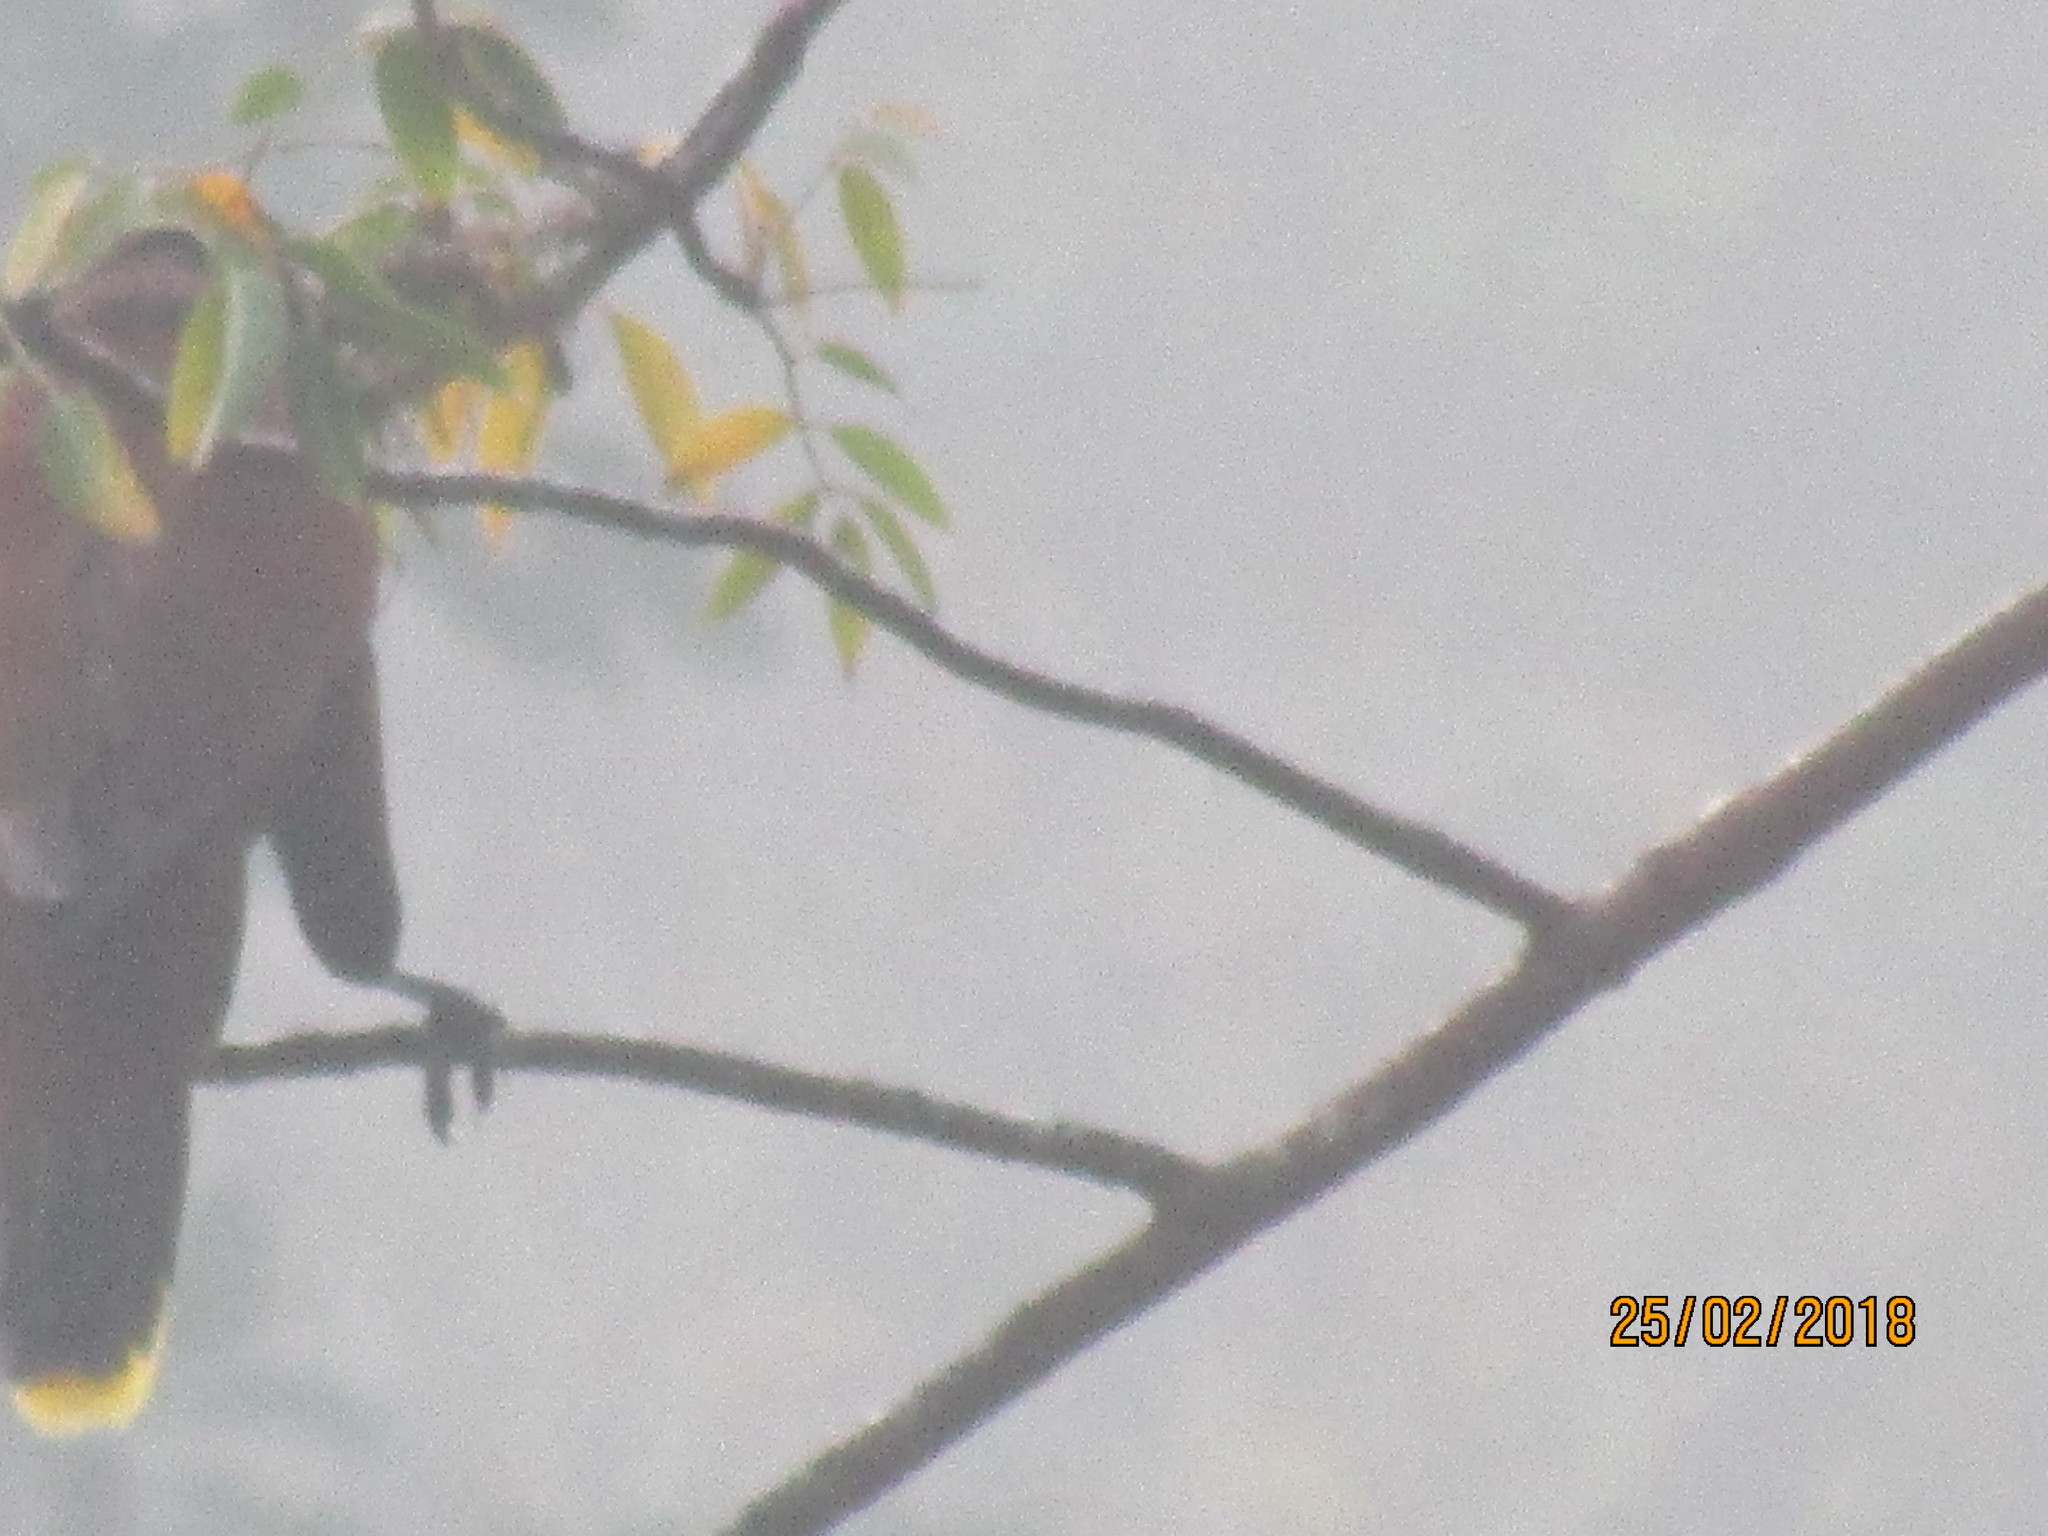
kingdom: Animalia
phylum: Chordata
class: Aves
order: Passeriformes
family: Icteridae
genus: Psarocolius
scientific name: Psarocolius montezuma
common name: Montezuma oropendola
